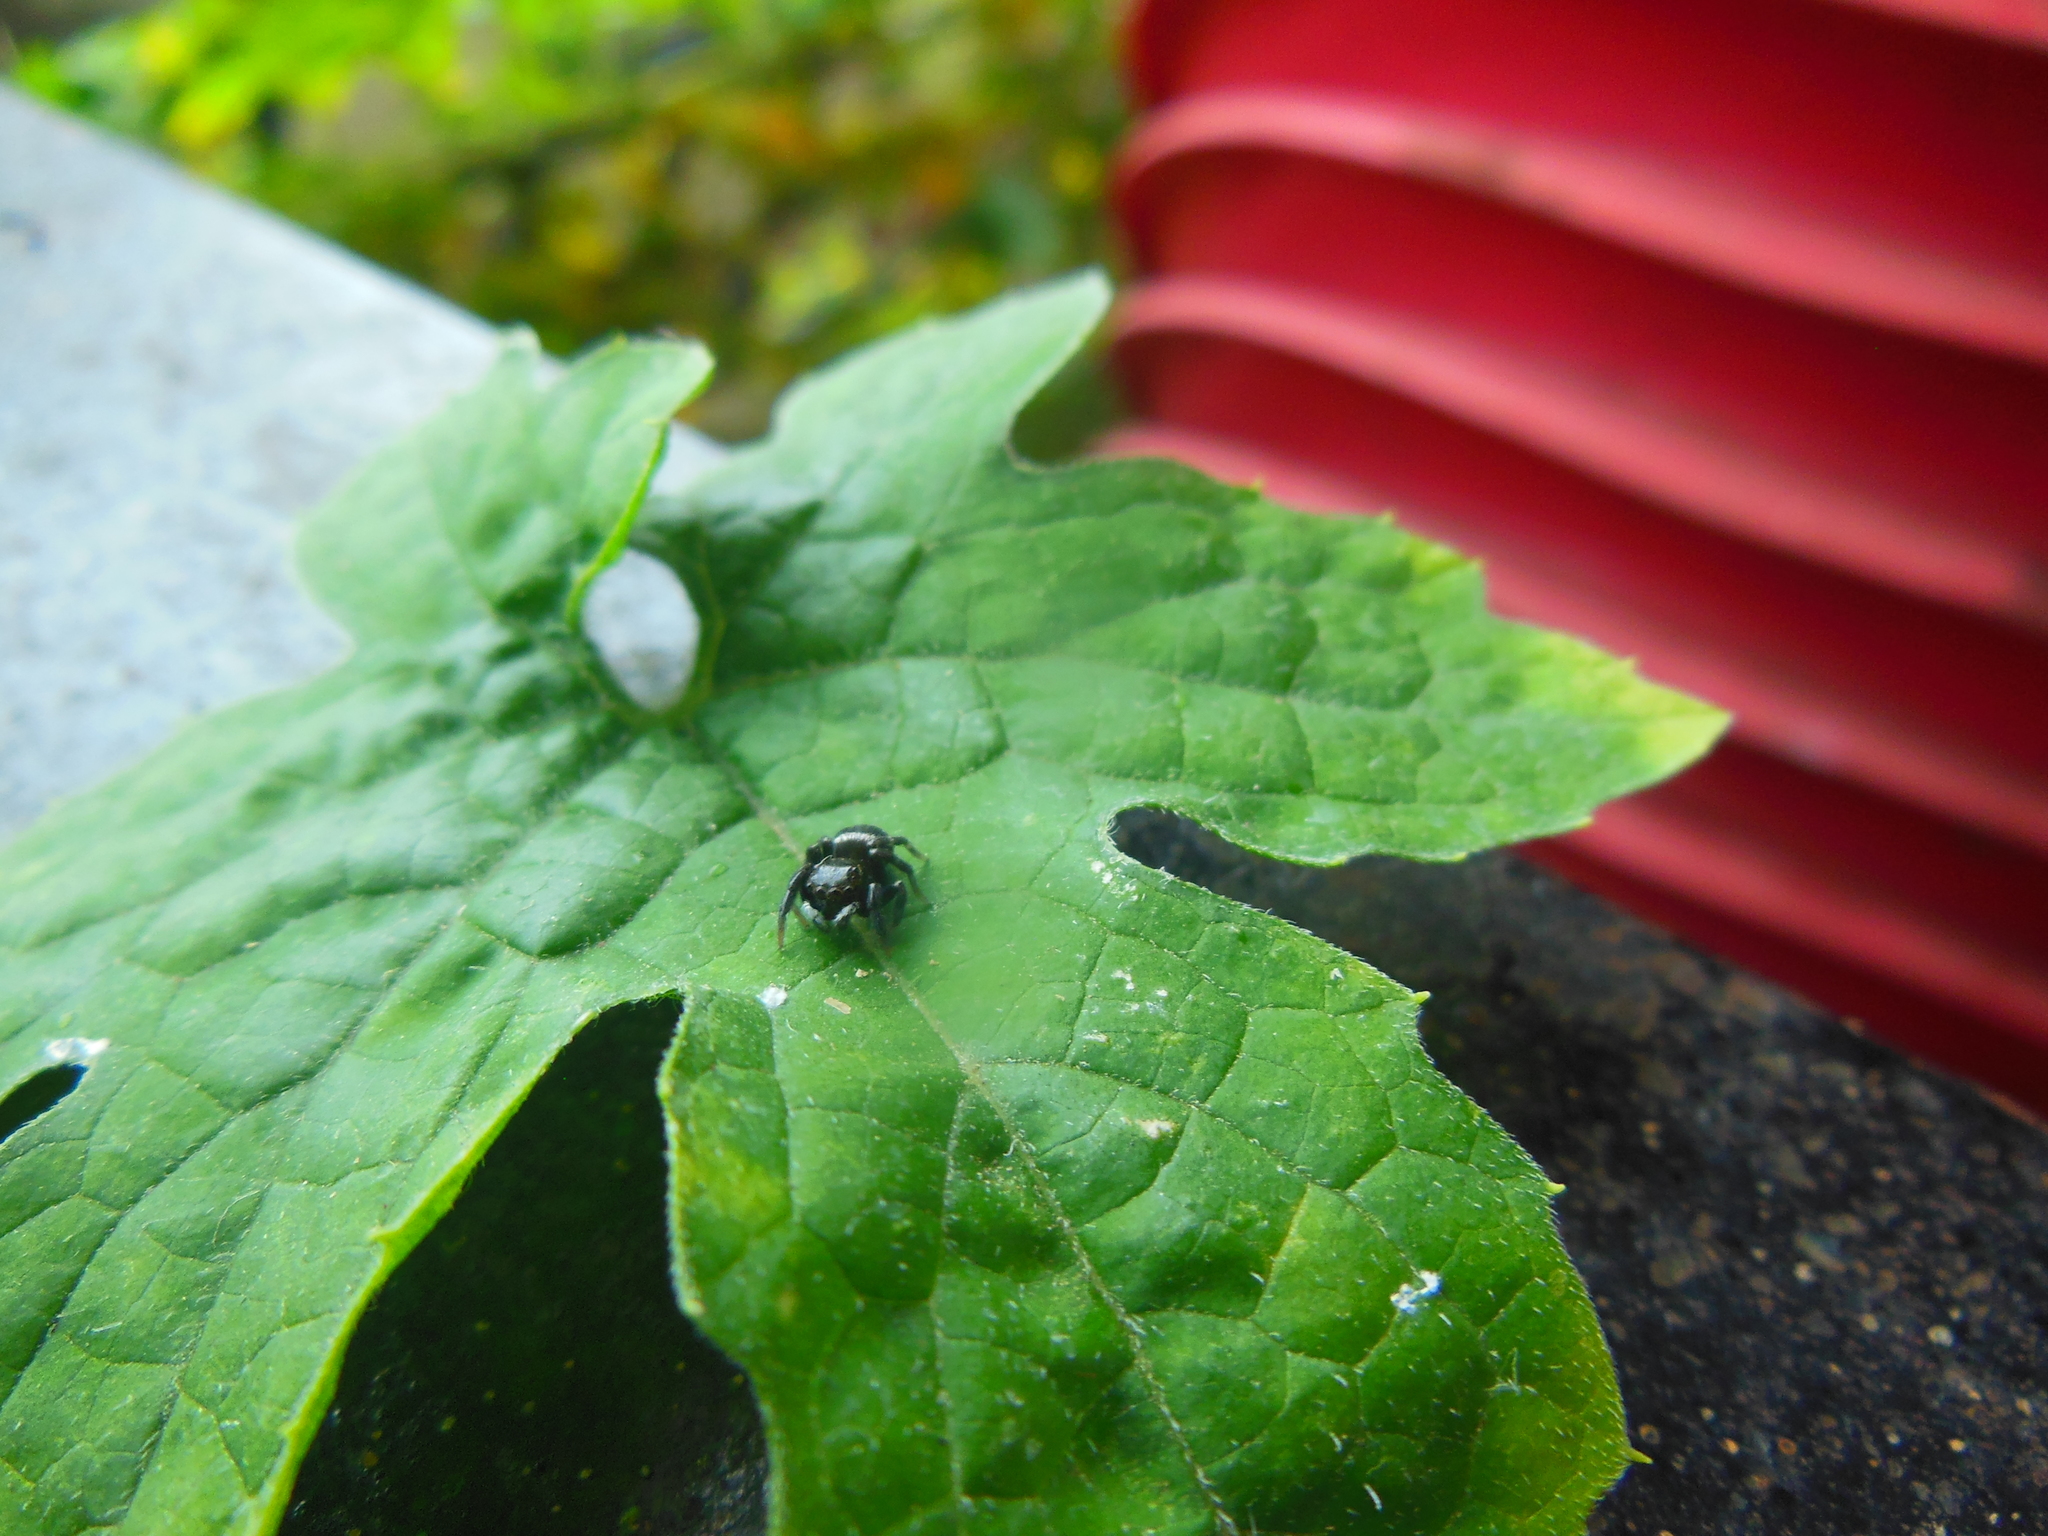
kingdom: Animalia
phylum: Arthropoda
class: Arachnida
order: Araneae
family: Salticidae
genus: Hasarius
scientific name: Hasarius adansoni
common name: Jumping spider
